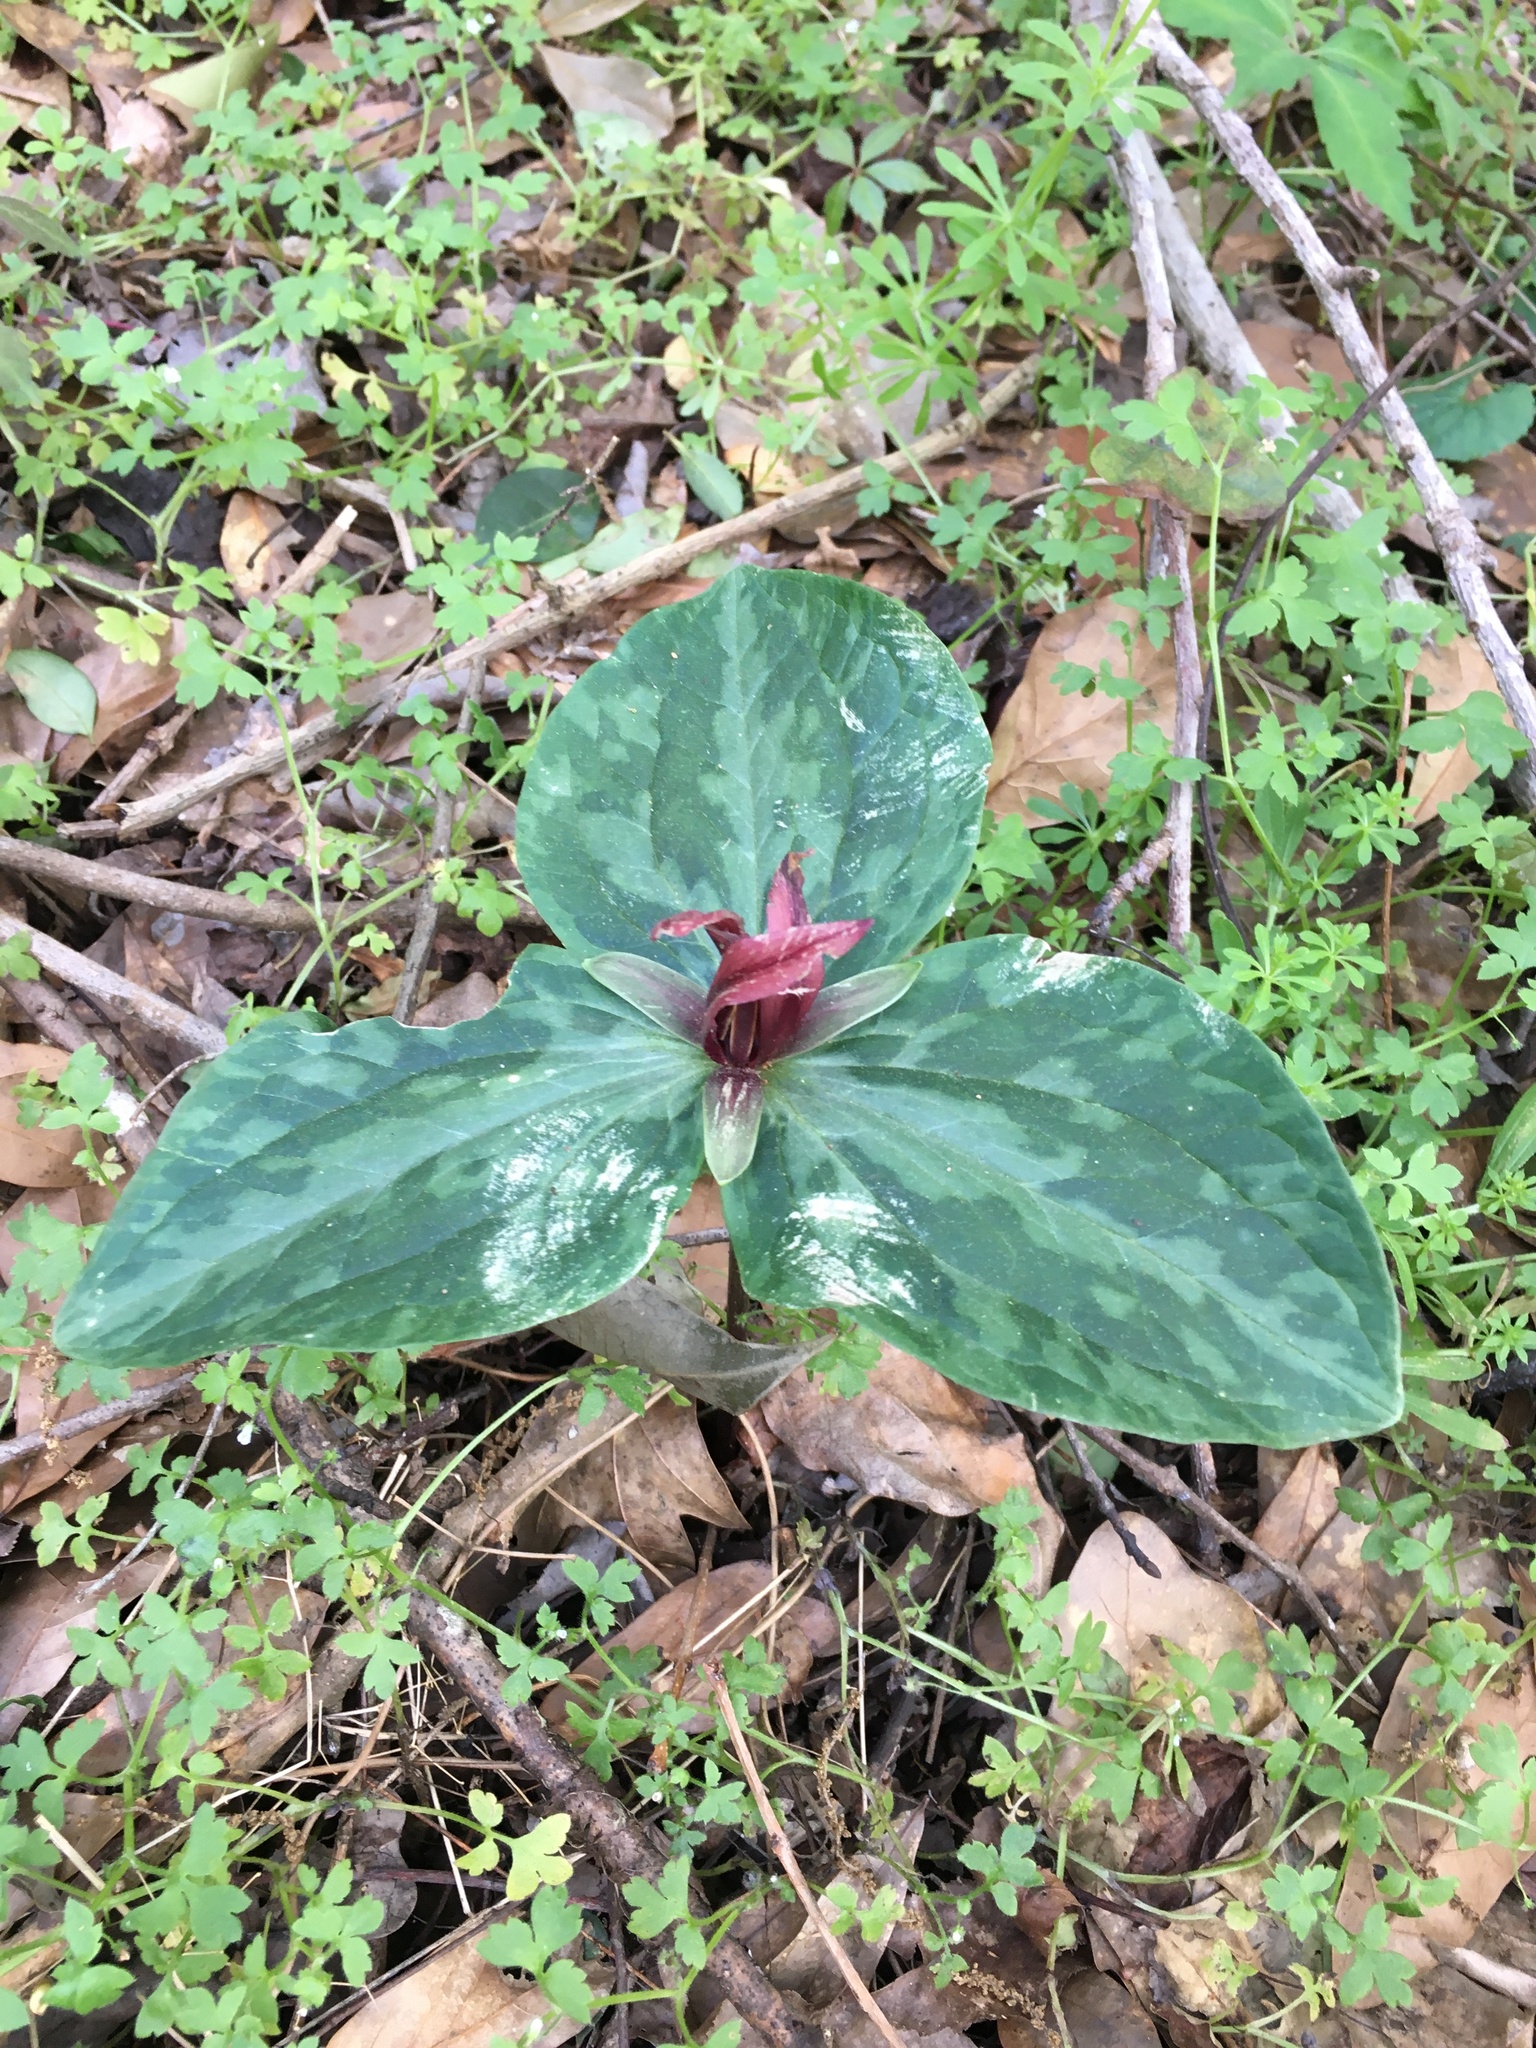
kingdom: Plantae
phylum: Tracheophyta
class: Liliopsida
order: Liliales
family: Melanthiaceae
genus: Trillium
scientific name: Trillium foetidissimum
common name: Mississippi river trillium
